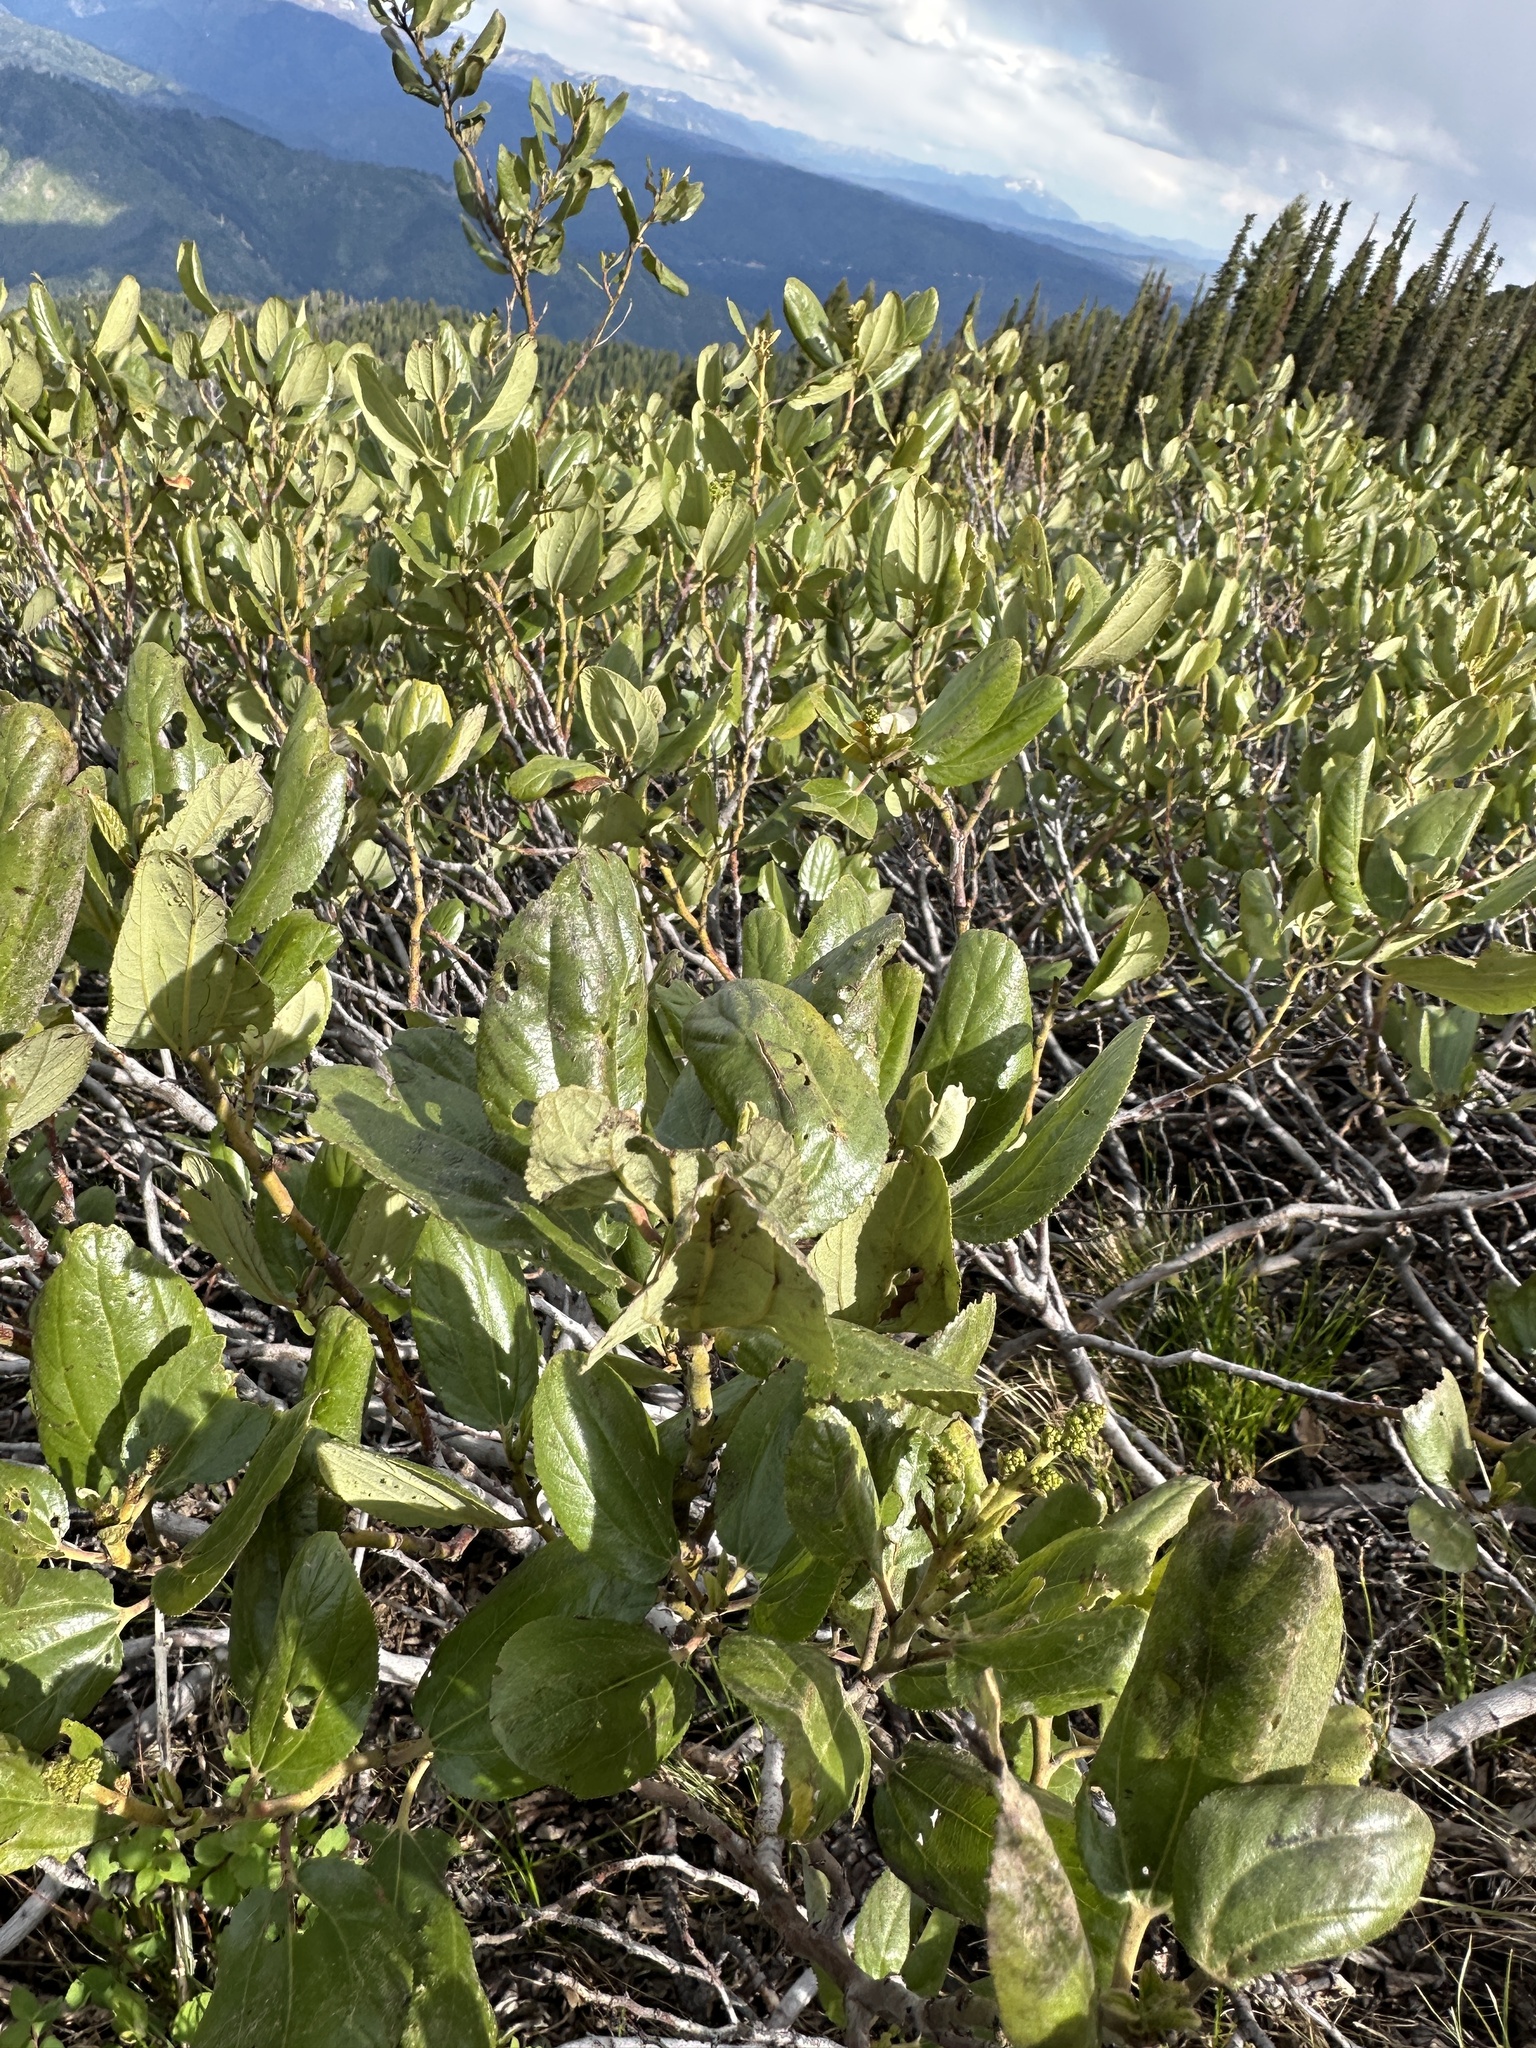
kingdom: Plantae
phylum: Tracheophyta
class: Magnoliopsida
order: Rosales
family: Rhamnaceae
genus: Ceanothus
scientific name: Ceanothus velutinus
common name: Snowbrush
